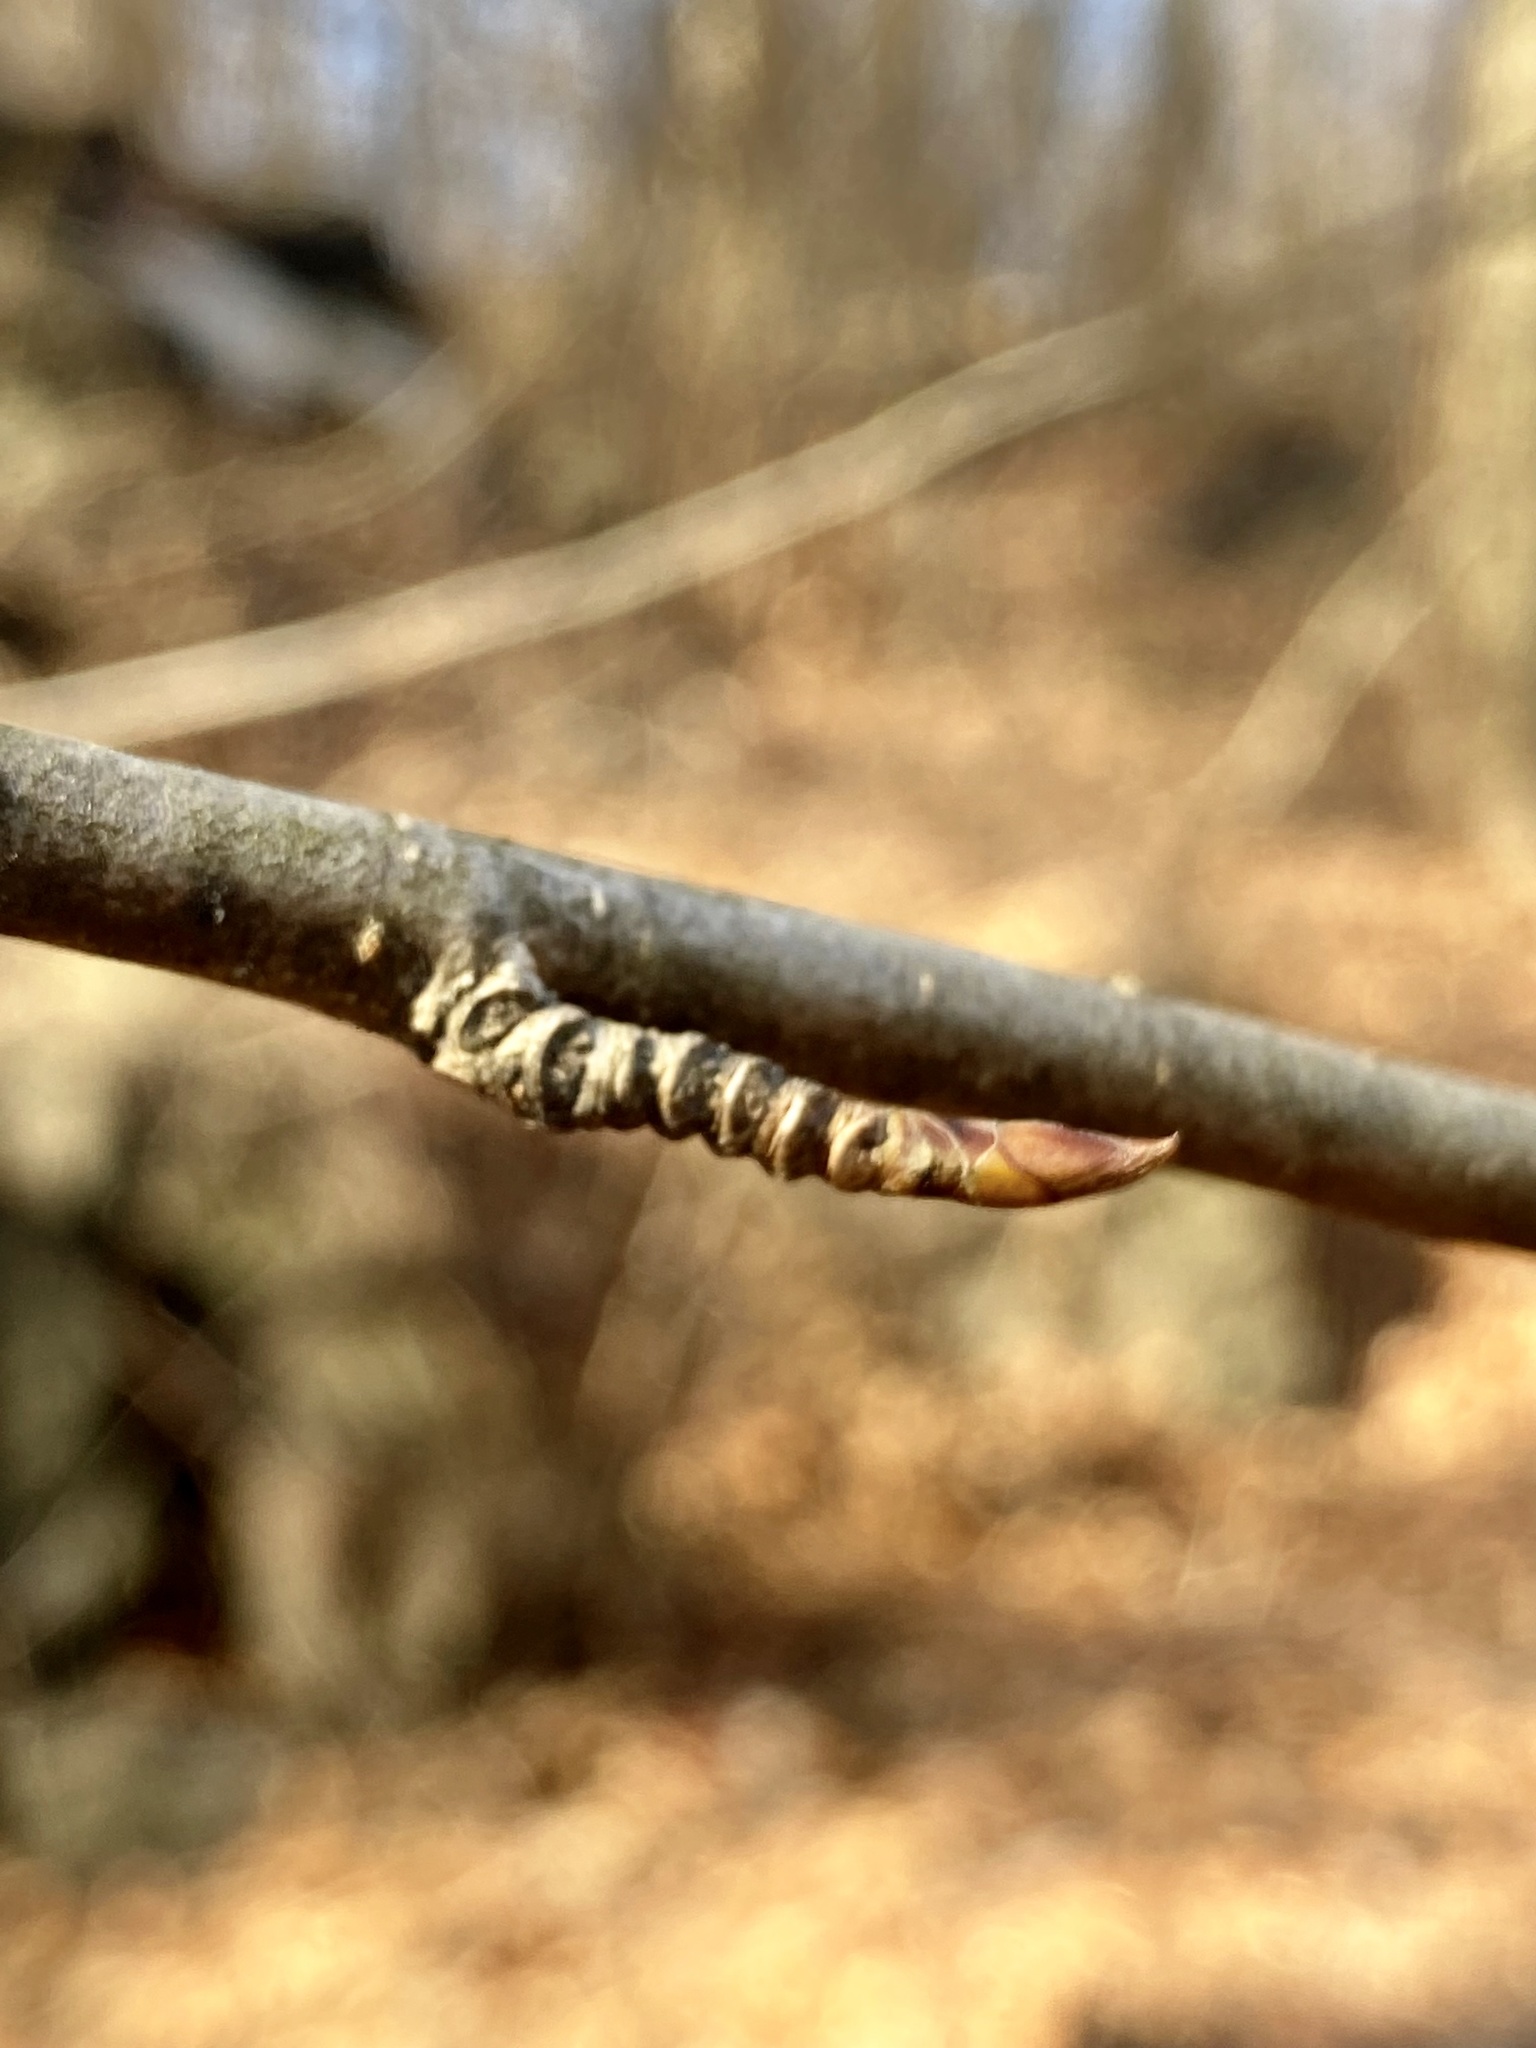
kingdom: Plantae
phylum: Tracheophyta
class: Magnoliopsida
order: Fagales
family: Betulaceae
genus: Betula
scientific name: Betula lenta
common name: Black birch
